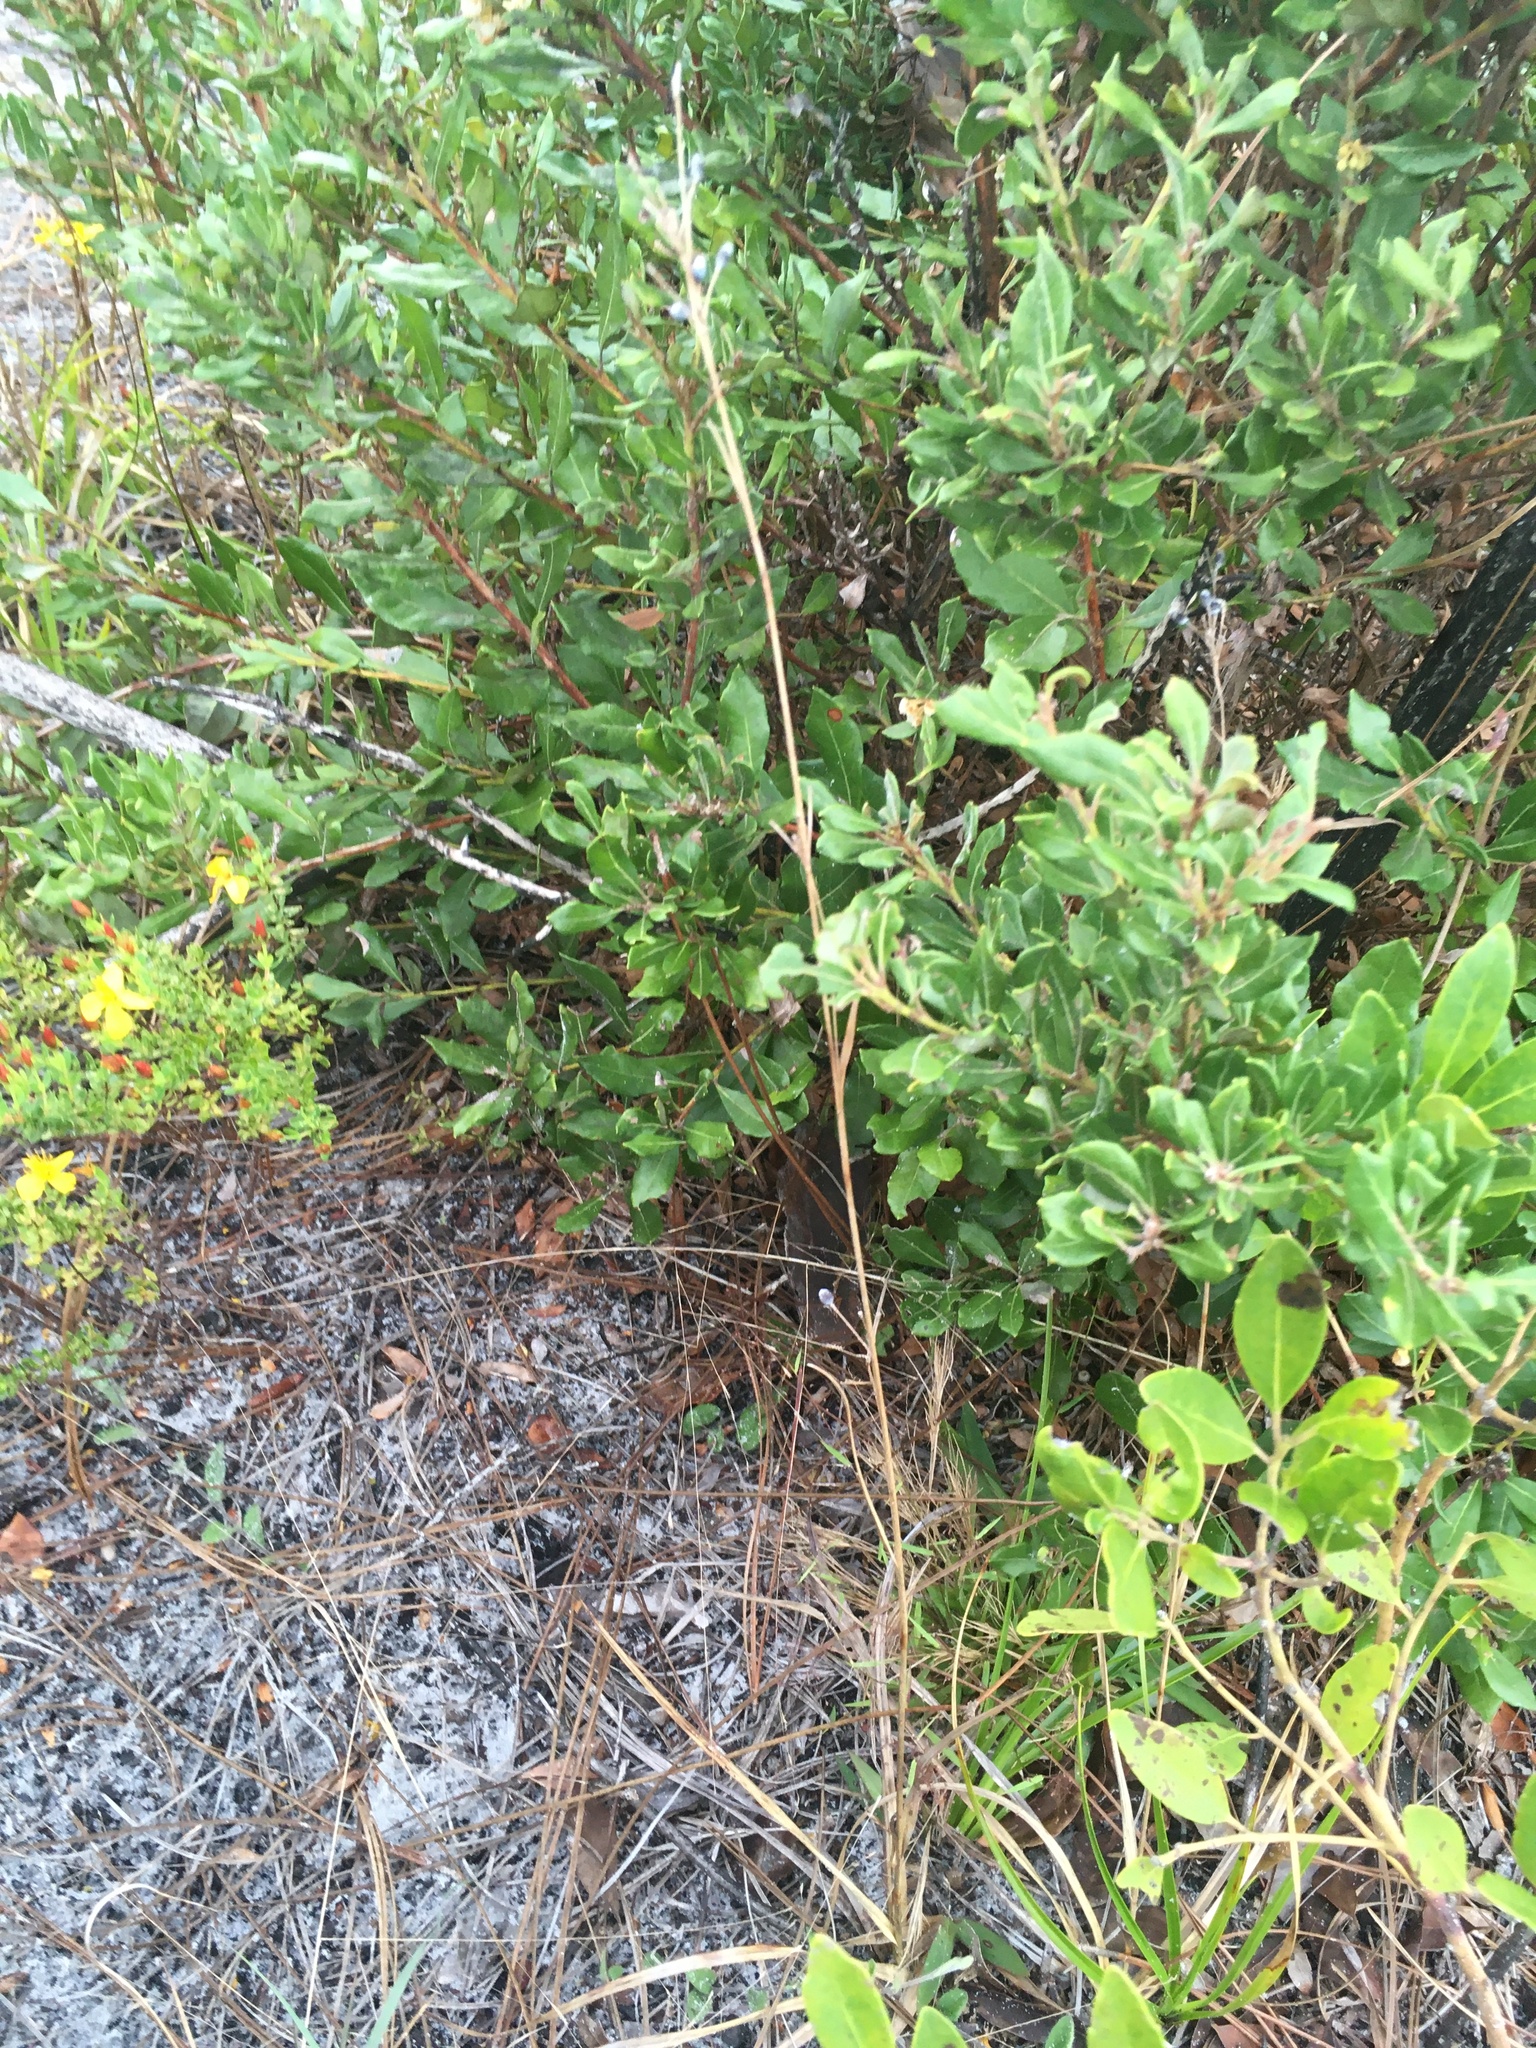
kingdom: Plantae
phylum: Tracheophyta
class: Liliopsida
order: Poales
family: Cyperaceae
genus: Rhynchospora
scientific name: Rhynchospora megalocarpa
